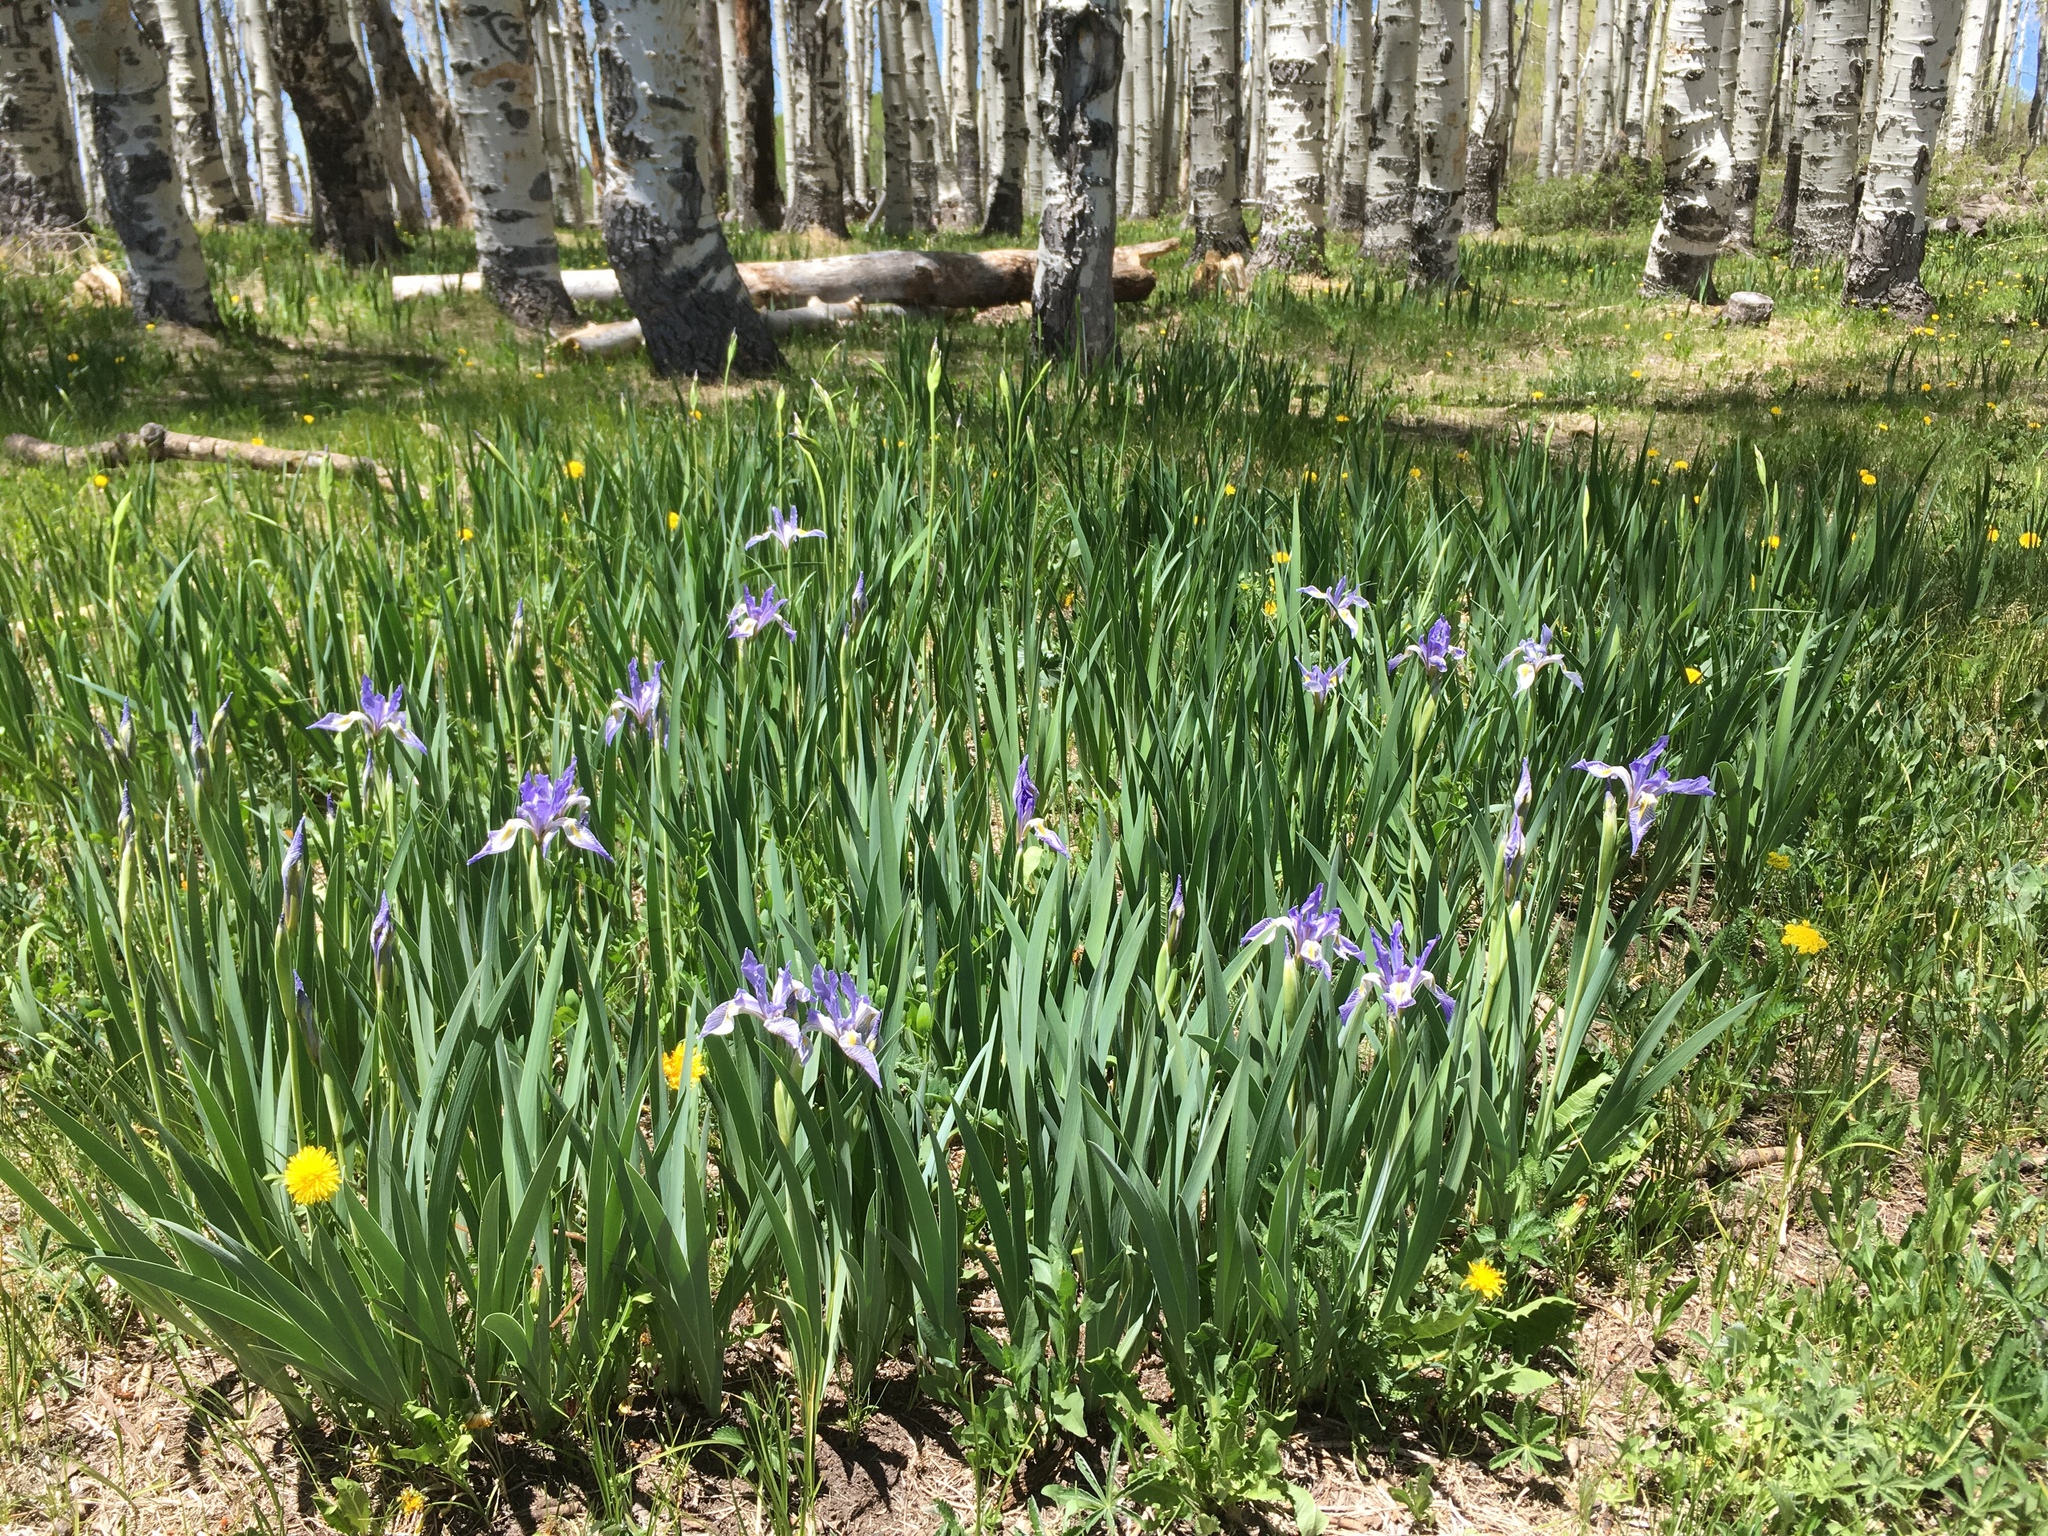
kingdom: Plantae
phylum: Tracheophyta
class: Liliopsida
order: Asparagales
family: Iridaceae
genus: Iris
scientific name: Iris missouriensis
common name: Rocky mountain iris
